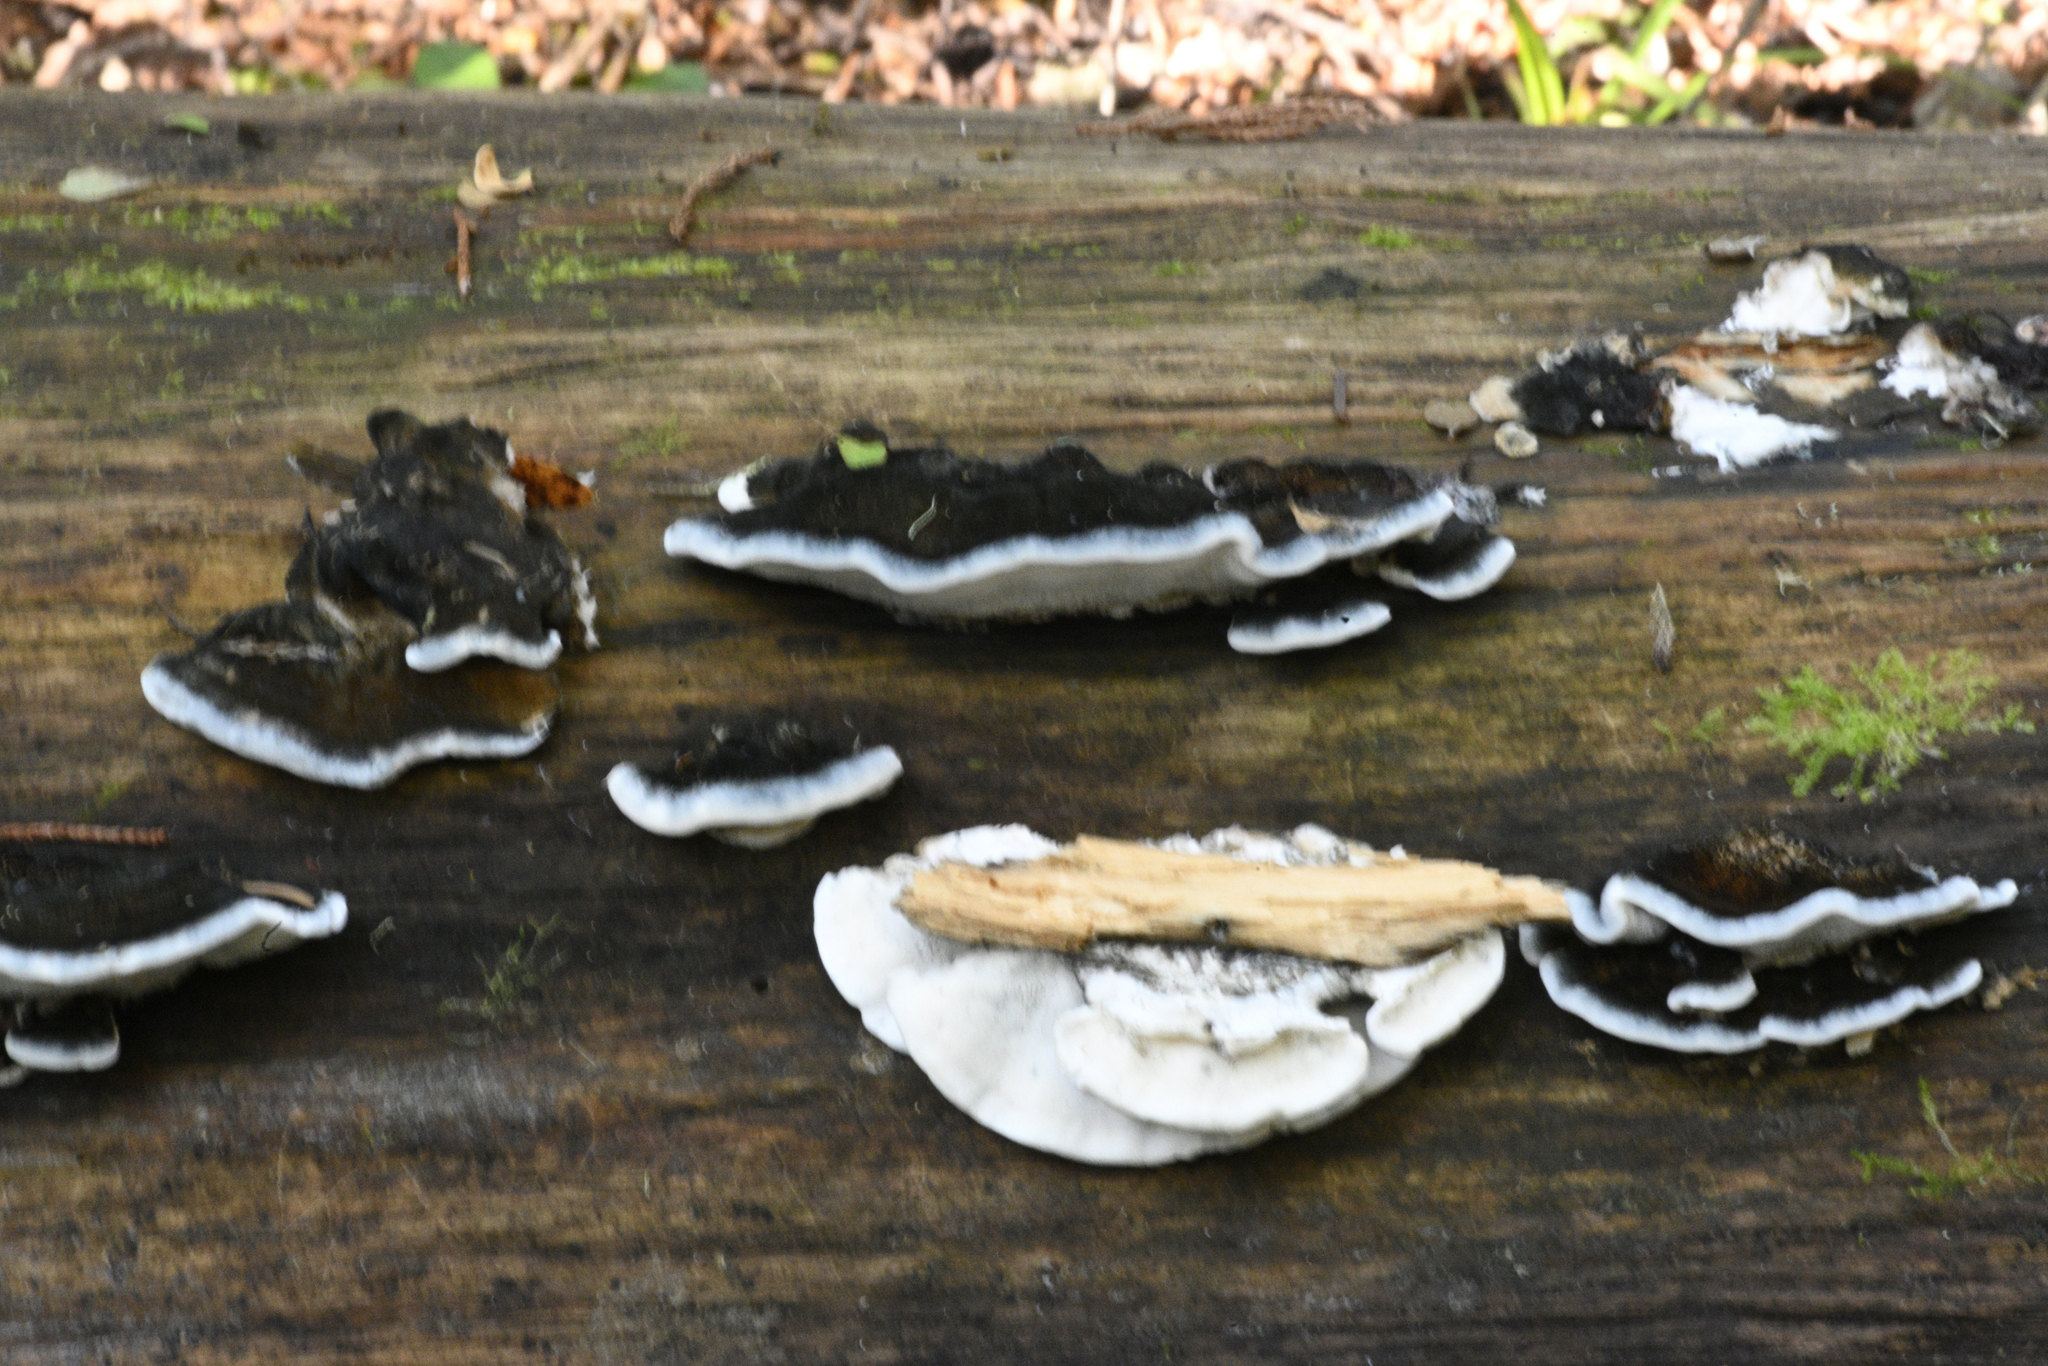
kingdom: Fungi
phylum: Basidiomycota
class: Agaricomycetes
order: Polyporales
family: Incrustoporiaceae
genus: Tyromyces
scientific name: Tyromyces atrostrigosus
